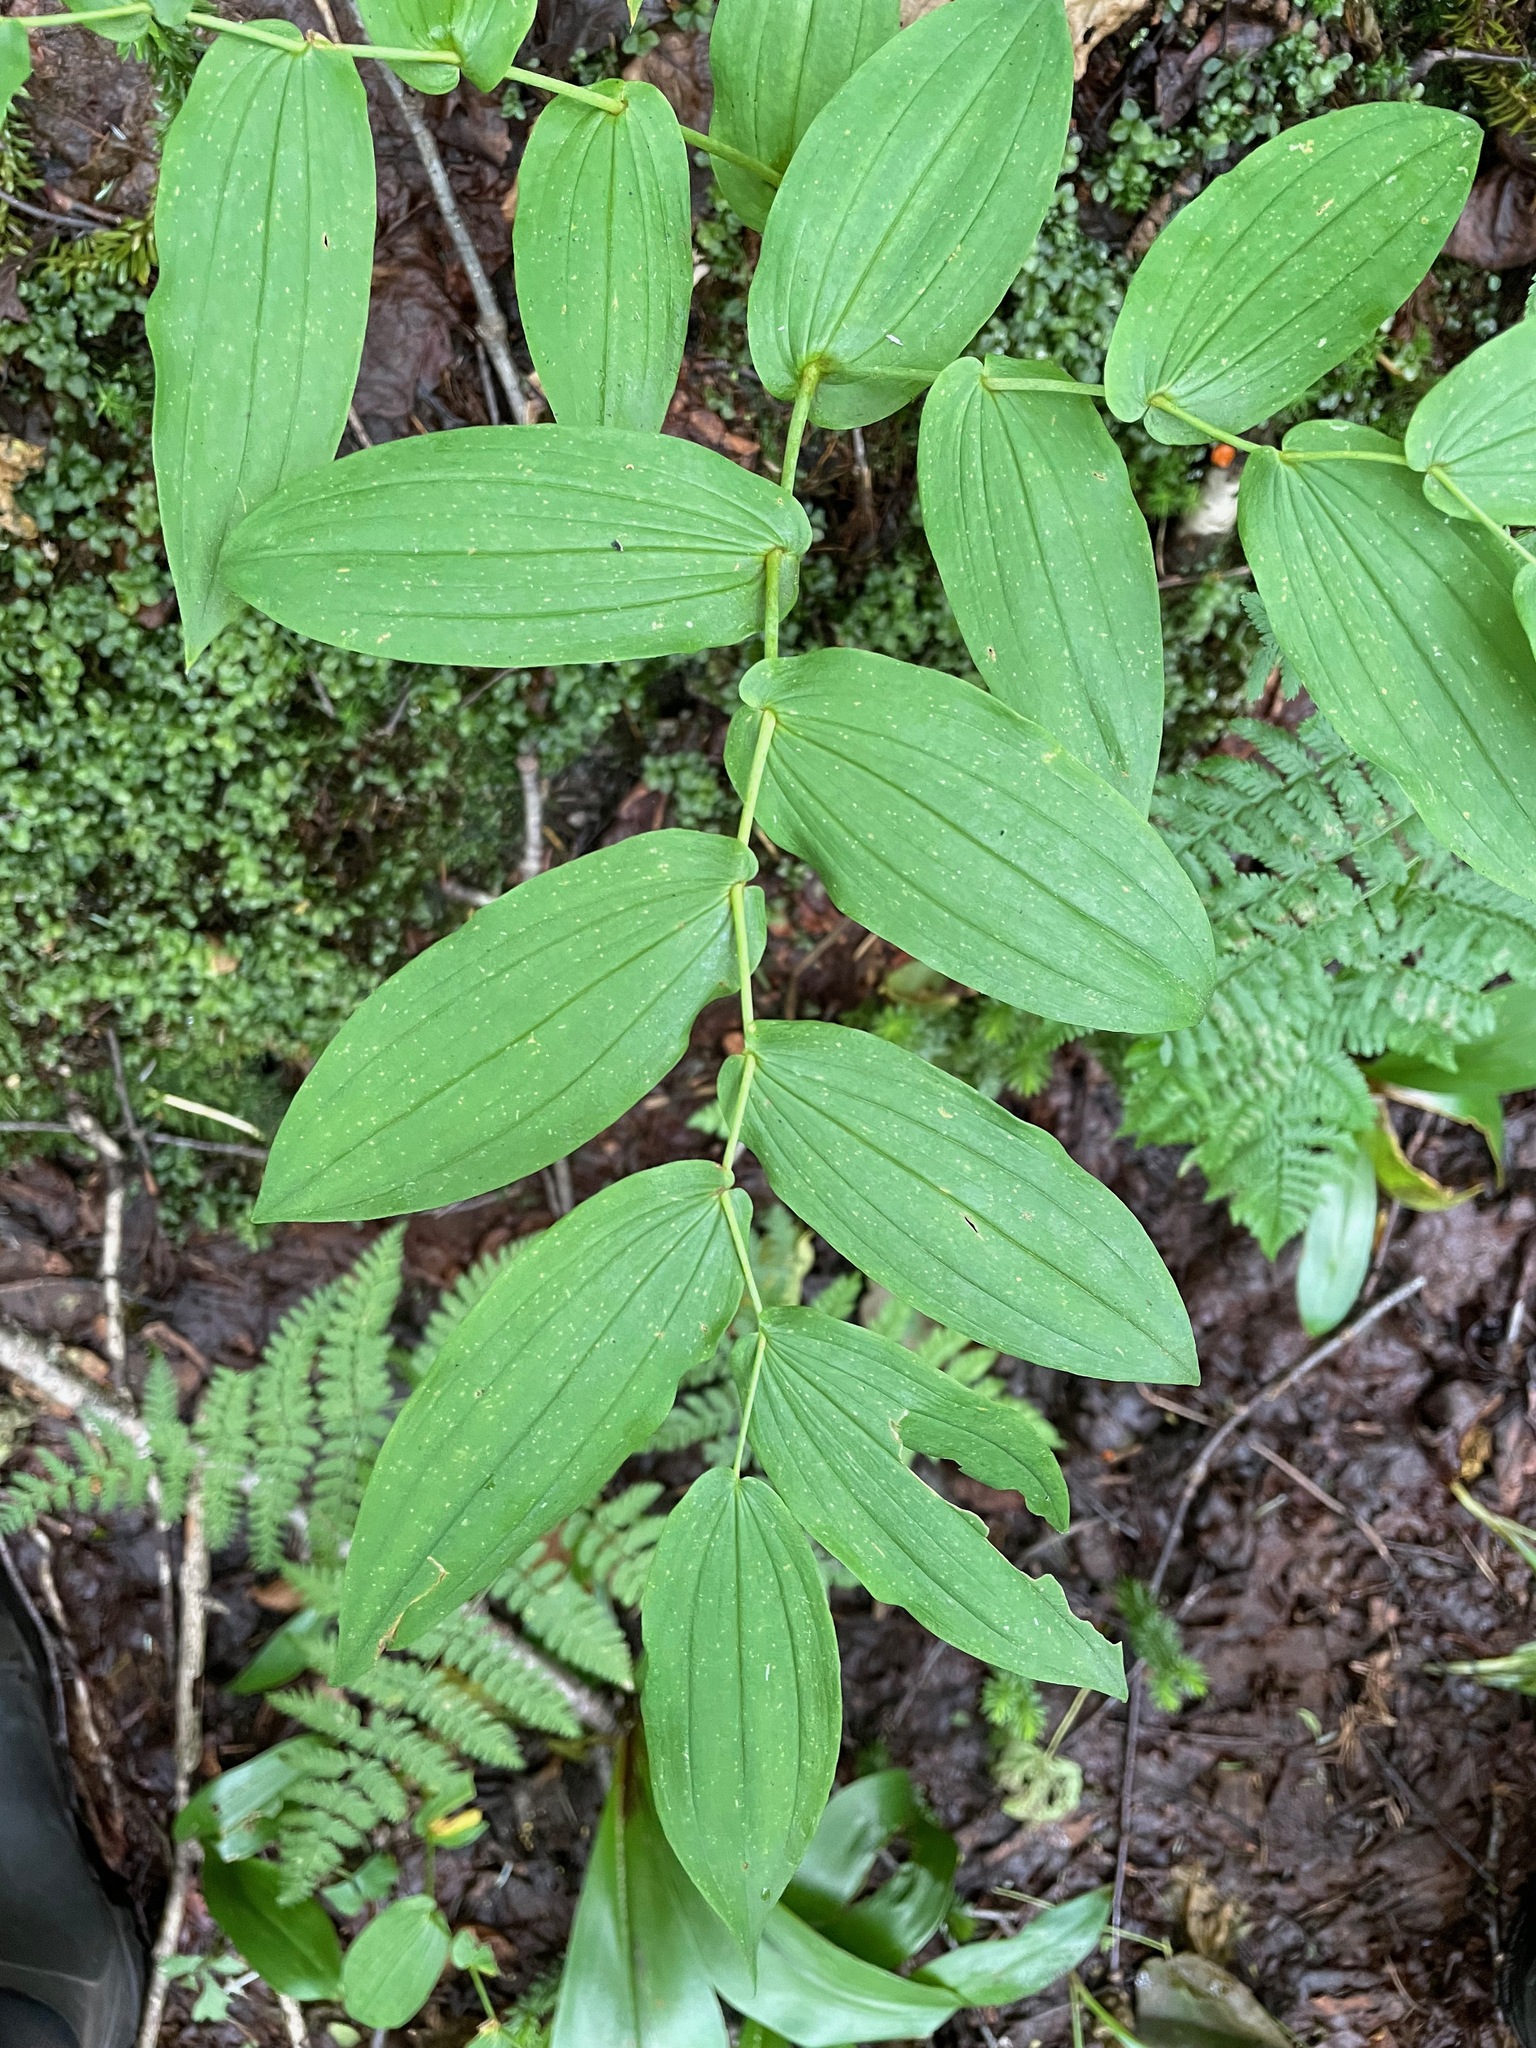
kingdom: Plantae
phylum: Tracheophyta
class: Liliopsida
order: Liliales
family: Liliaceae
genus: Streptopus
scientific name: Streptopus amplexifolius
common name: Clasp twisted stalk
